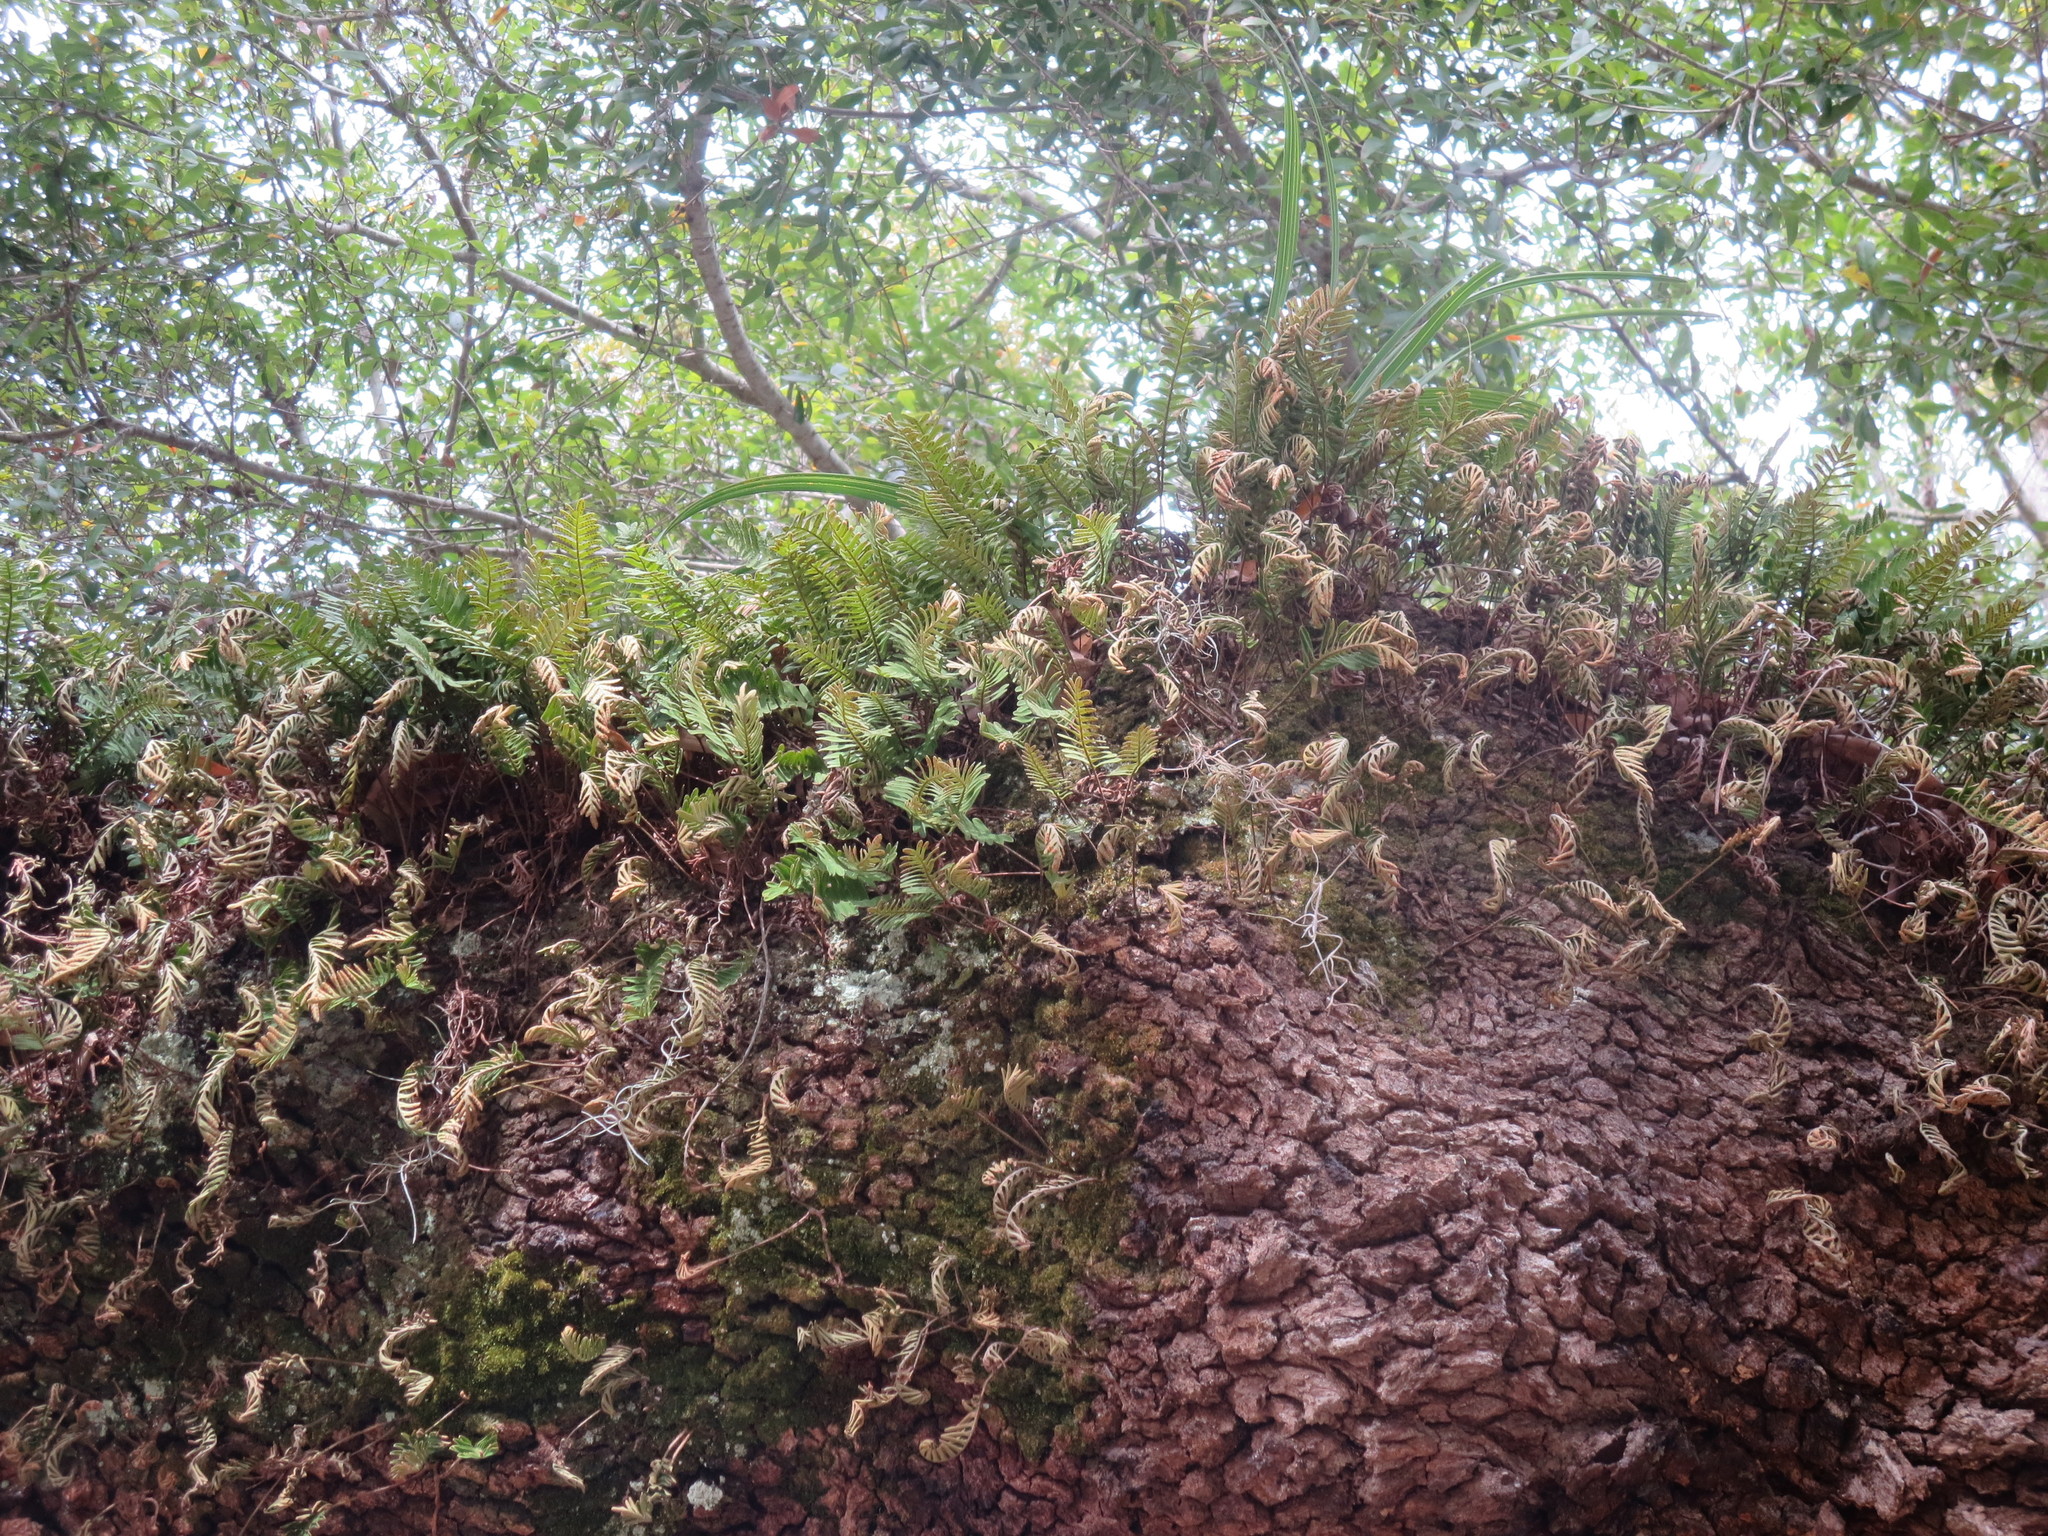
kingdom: Plantae
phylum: Tracheophyta
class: Polypodiopsida
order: Polypodiales
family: Polypodiaceae
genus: Pleopeltis
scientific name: Pleopeltis michauxiana
